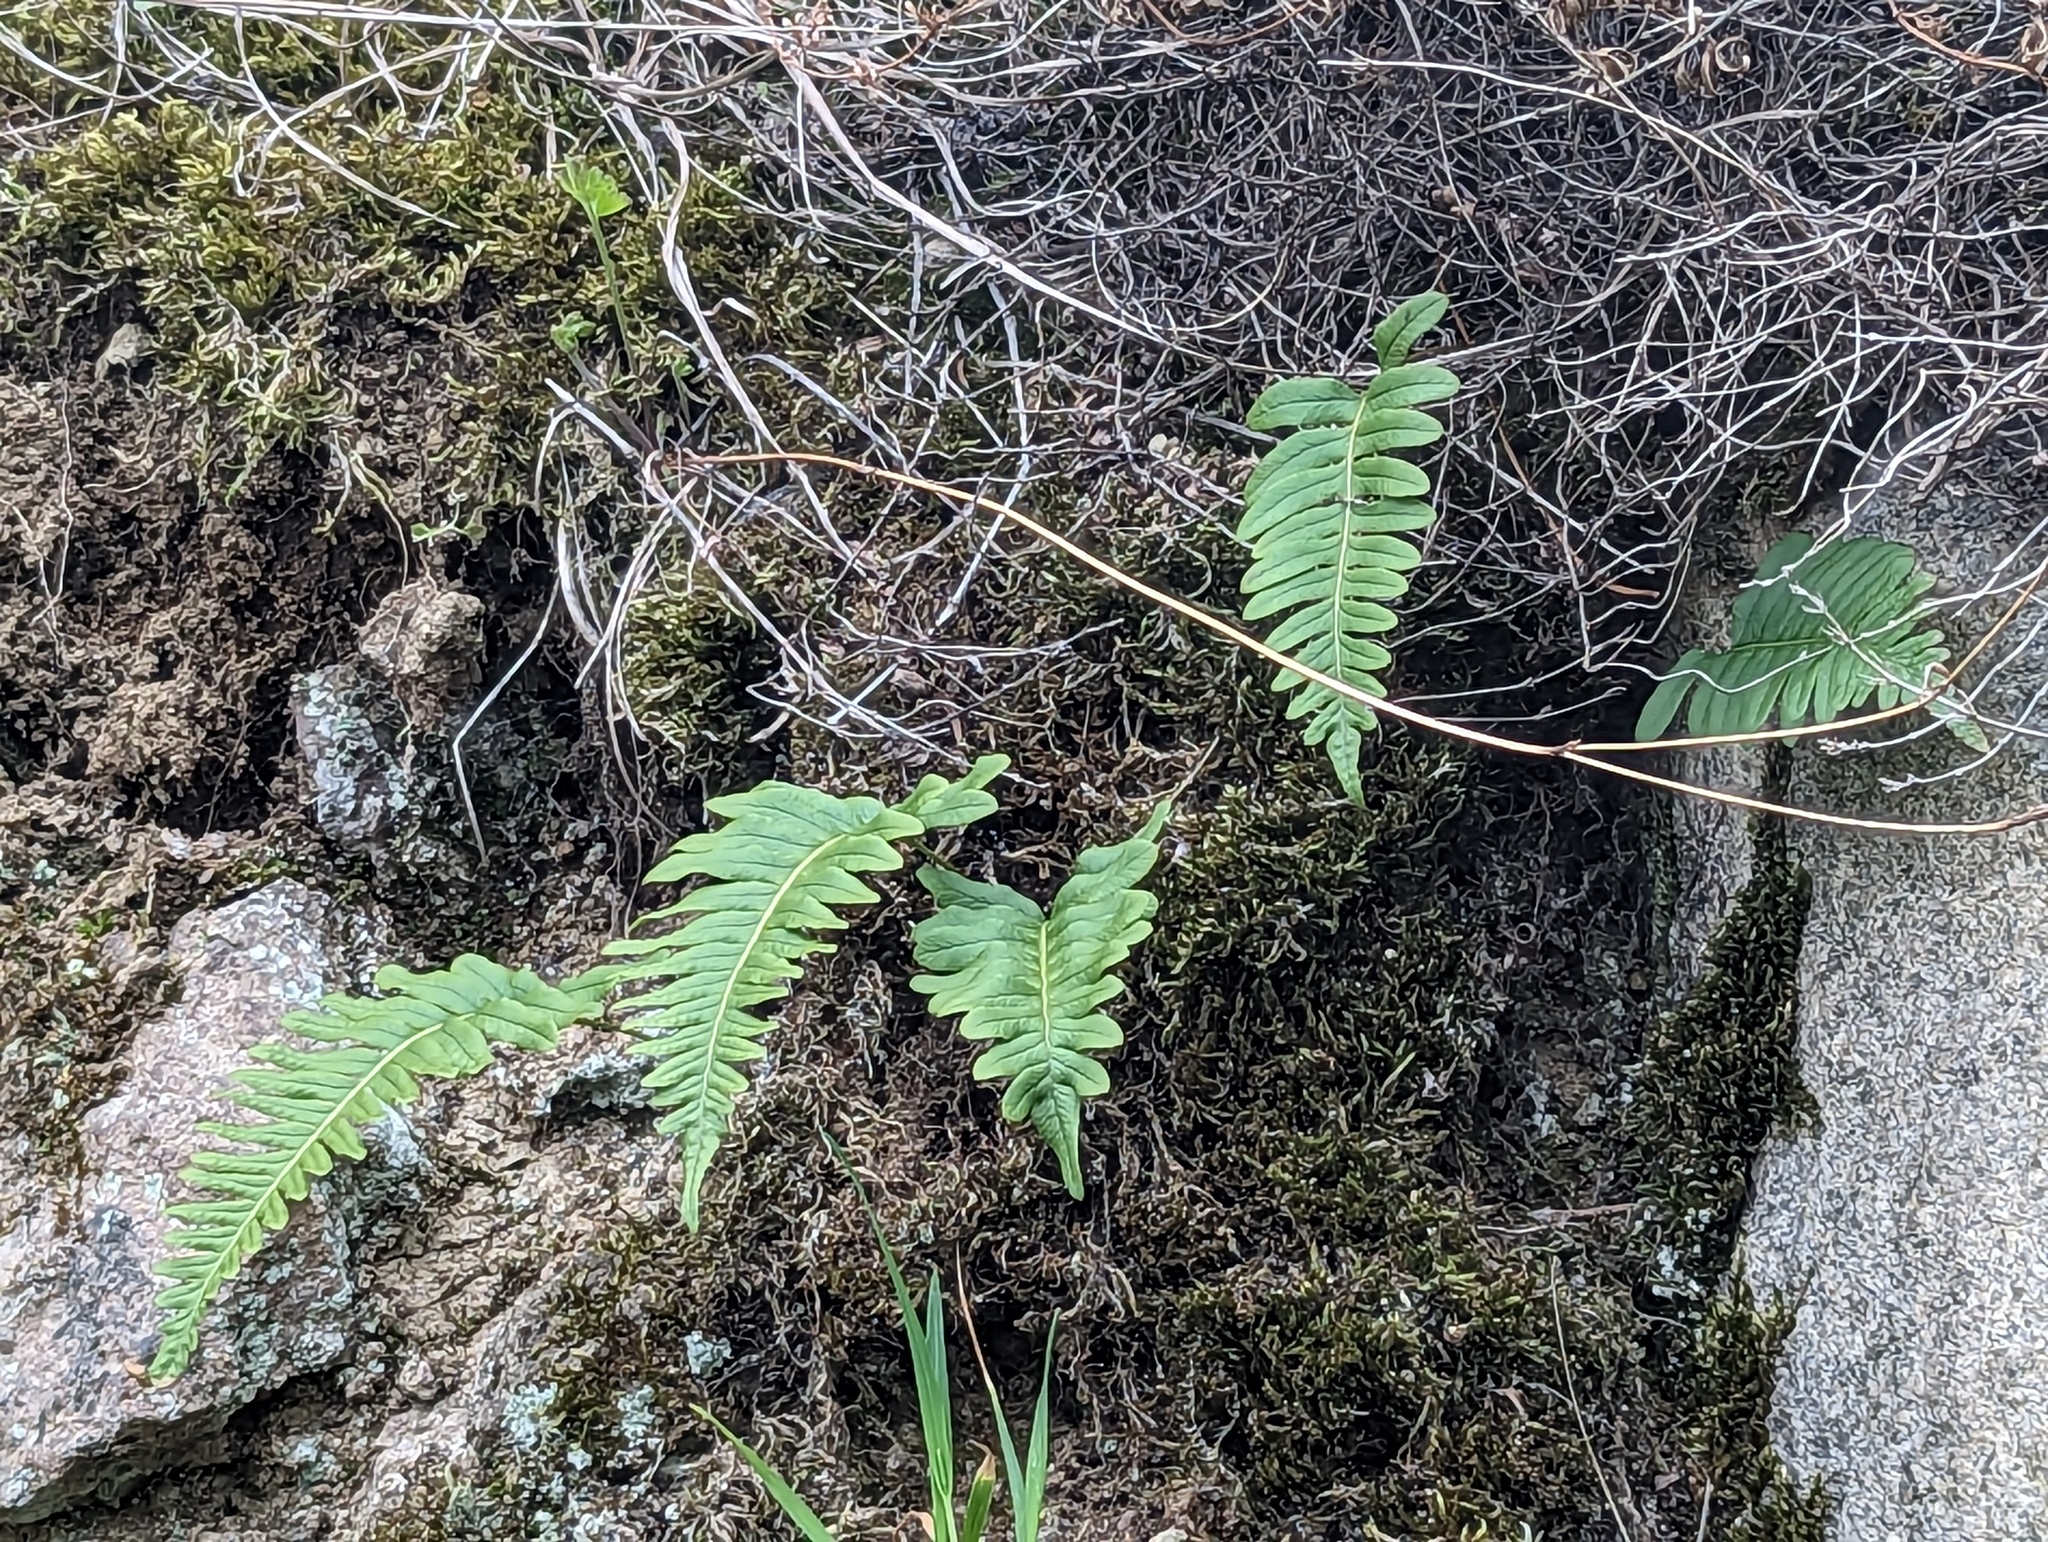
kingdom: Plantae
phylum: Tracheophyta
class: Polypodiopsida
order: Polypodiales
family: Polypodiaceae
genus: Polypodium
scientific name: Polypodium vulgare
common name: Common polypody
